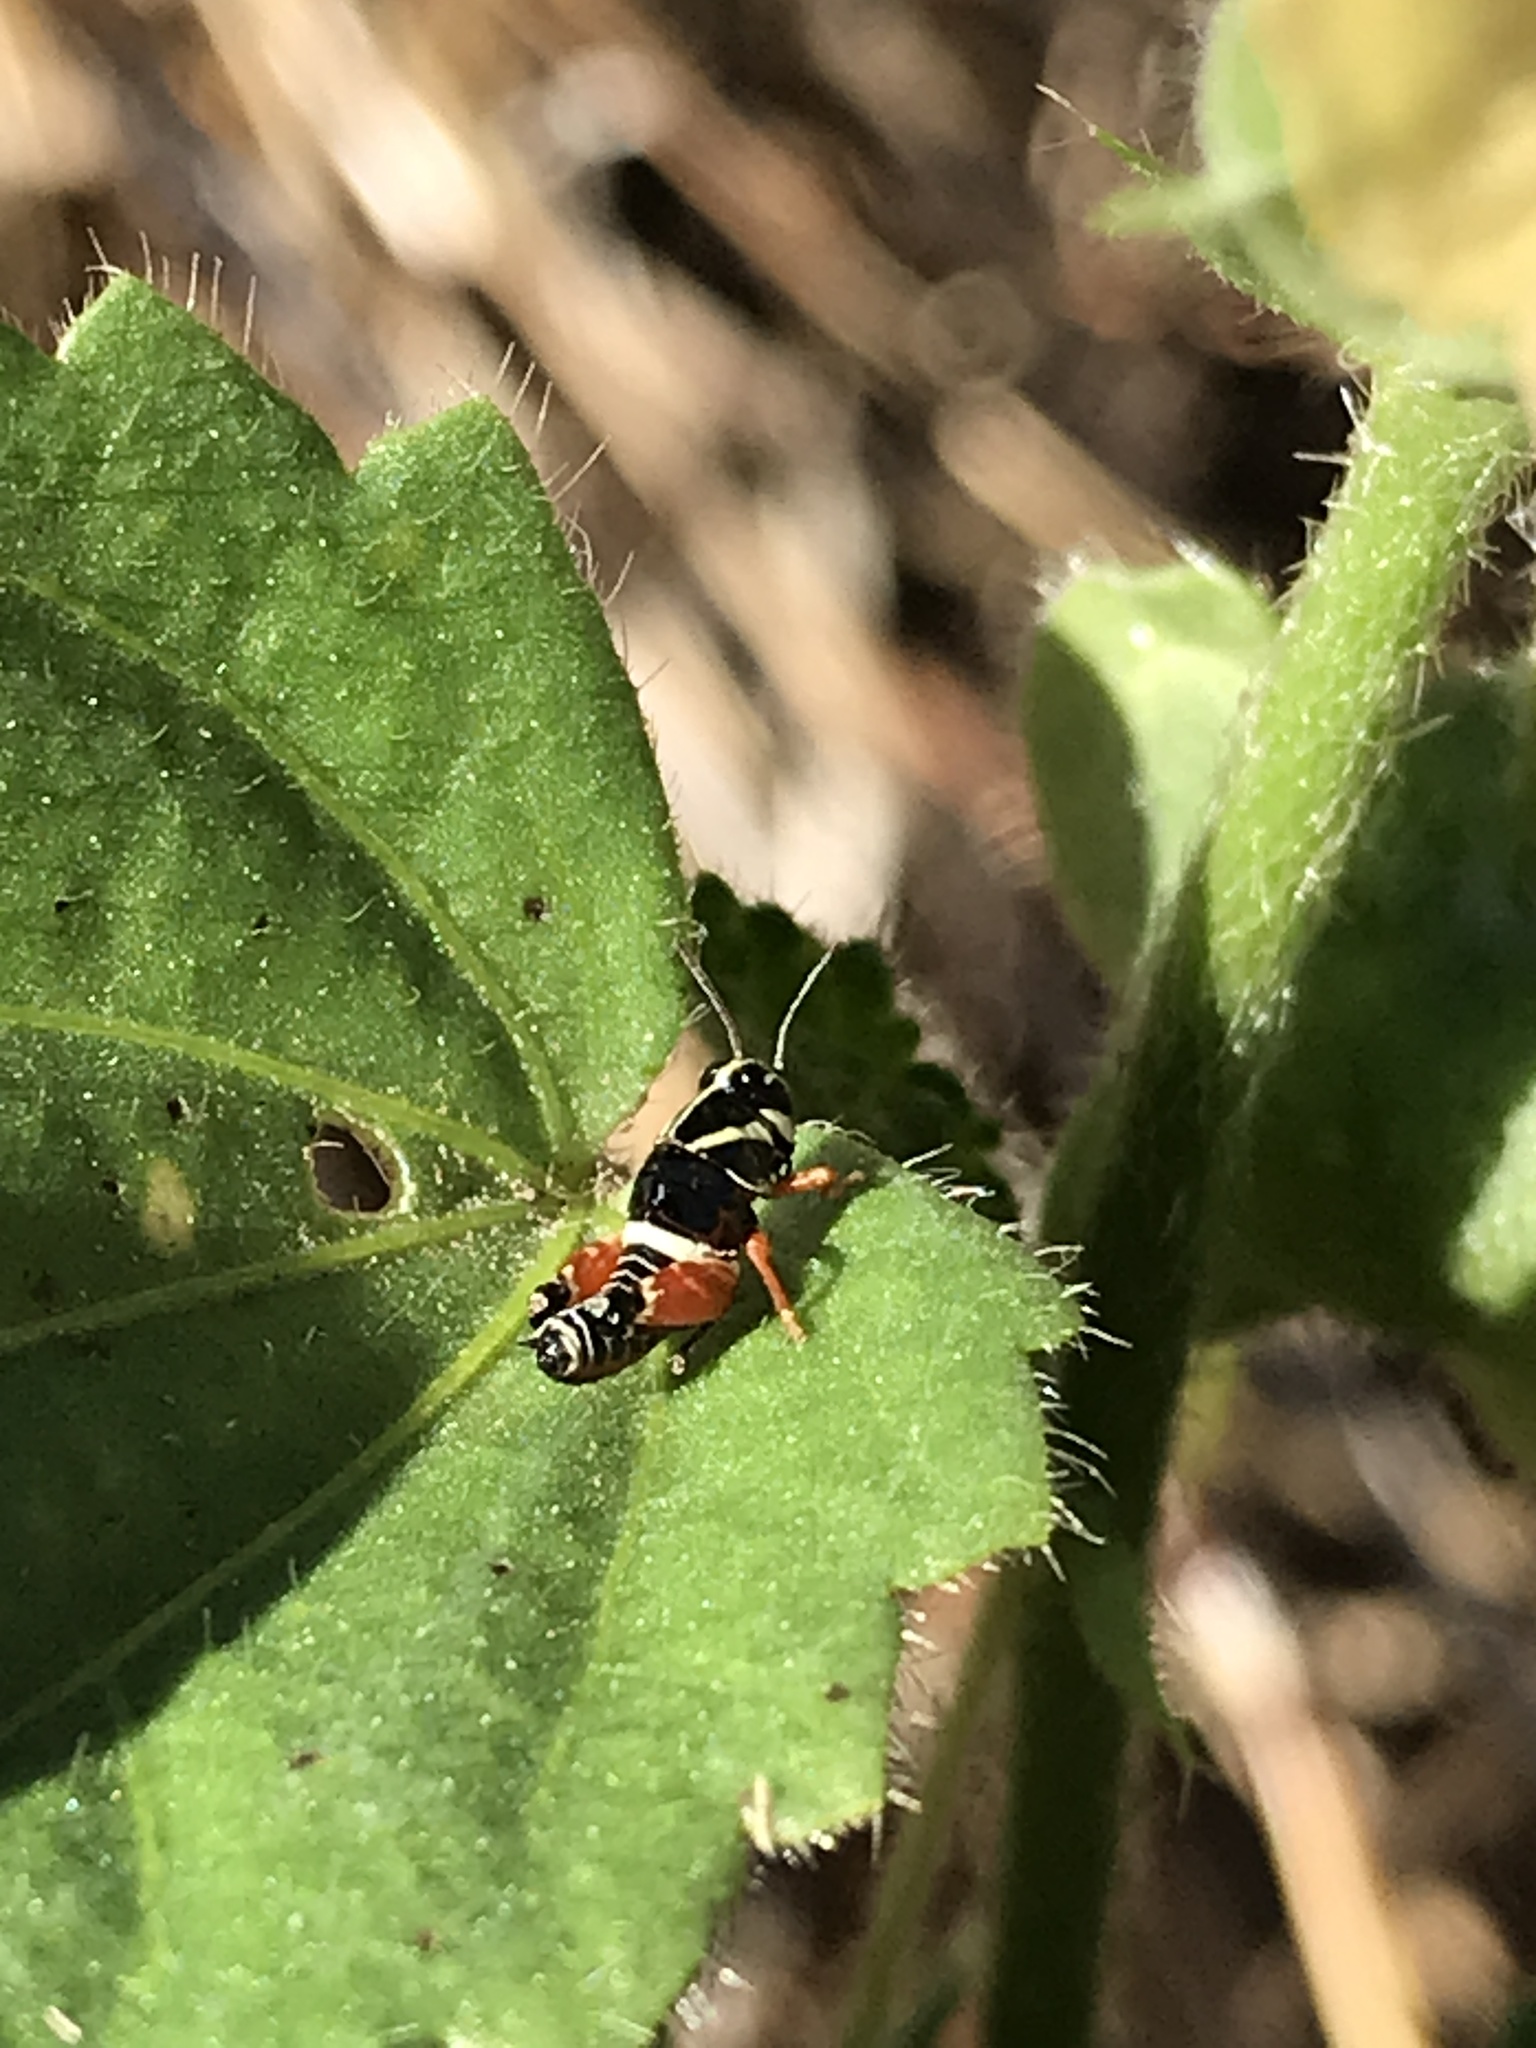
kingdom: Animalia
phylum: Arthropoda
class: Insecta
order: Orthoptera
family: Acrididae
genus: Aidemona
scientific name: Aidemona azteca
